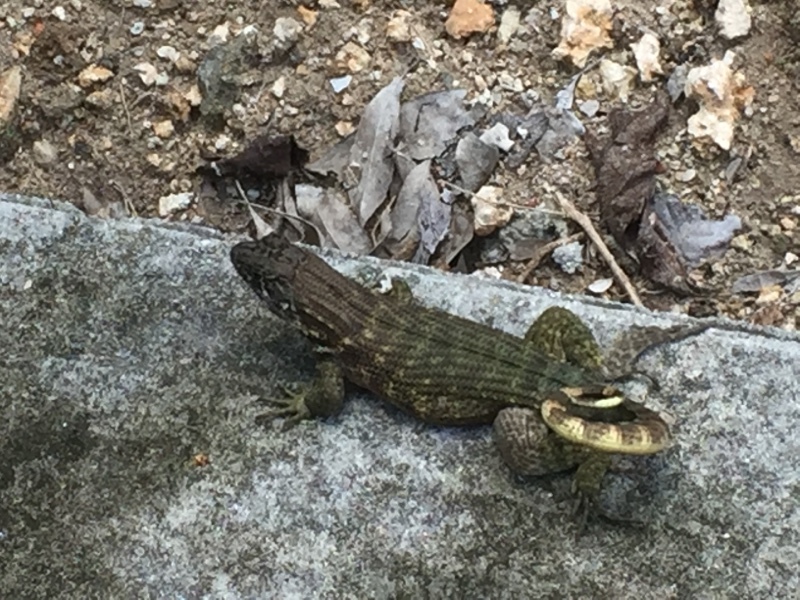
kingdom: Animalia
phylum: Chordata
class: Squamata
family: Leiocephalidae
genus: Leiocephalus
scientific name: Leiocephalus carinatus
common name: Northern curly-tailed lizard
